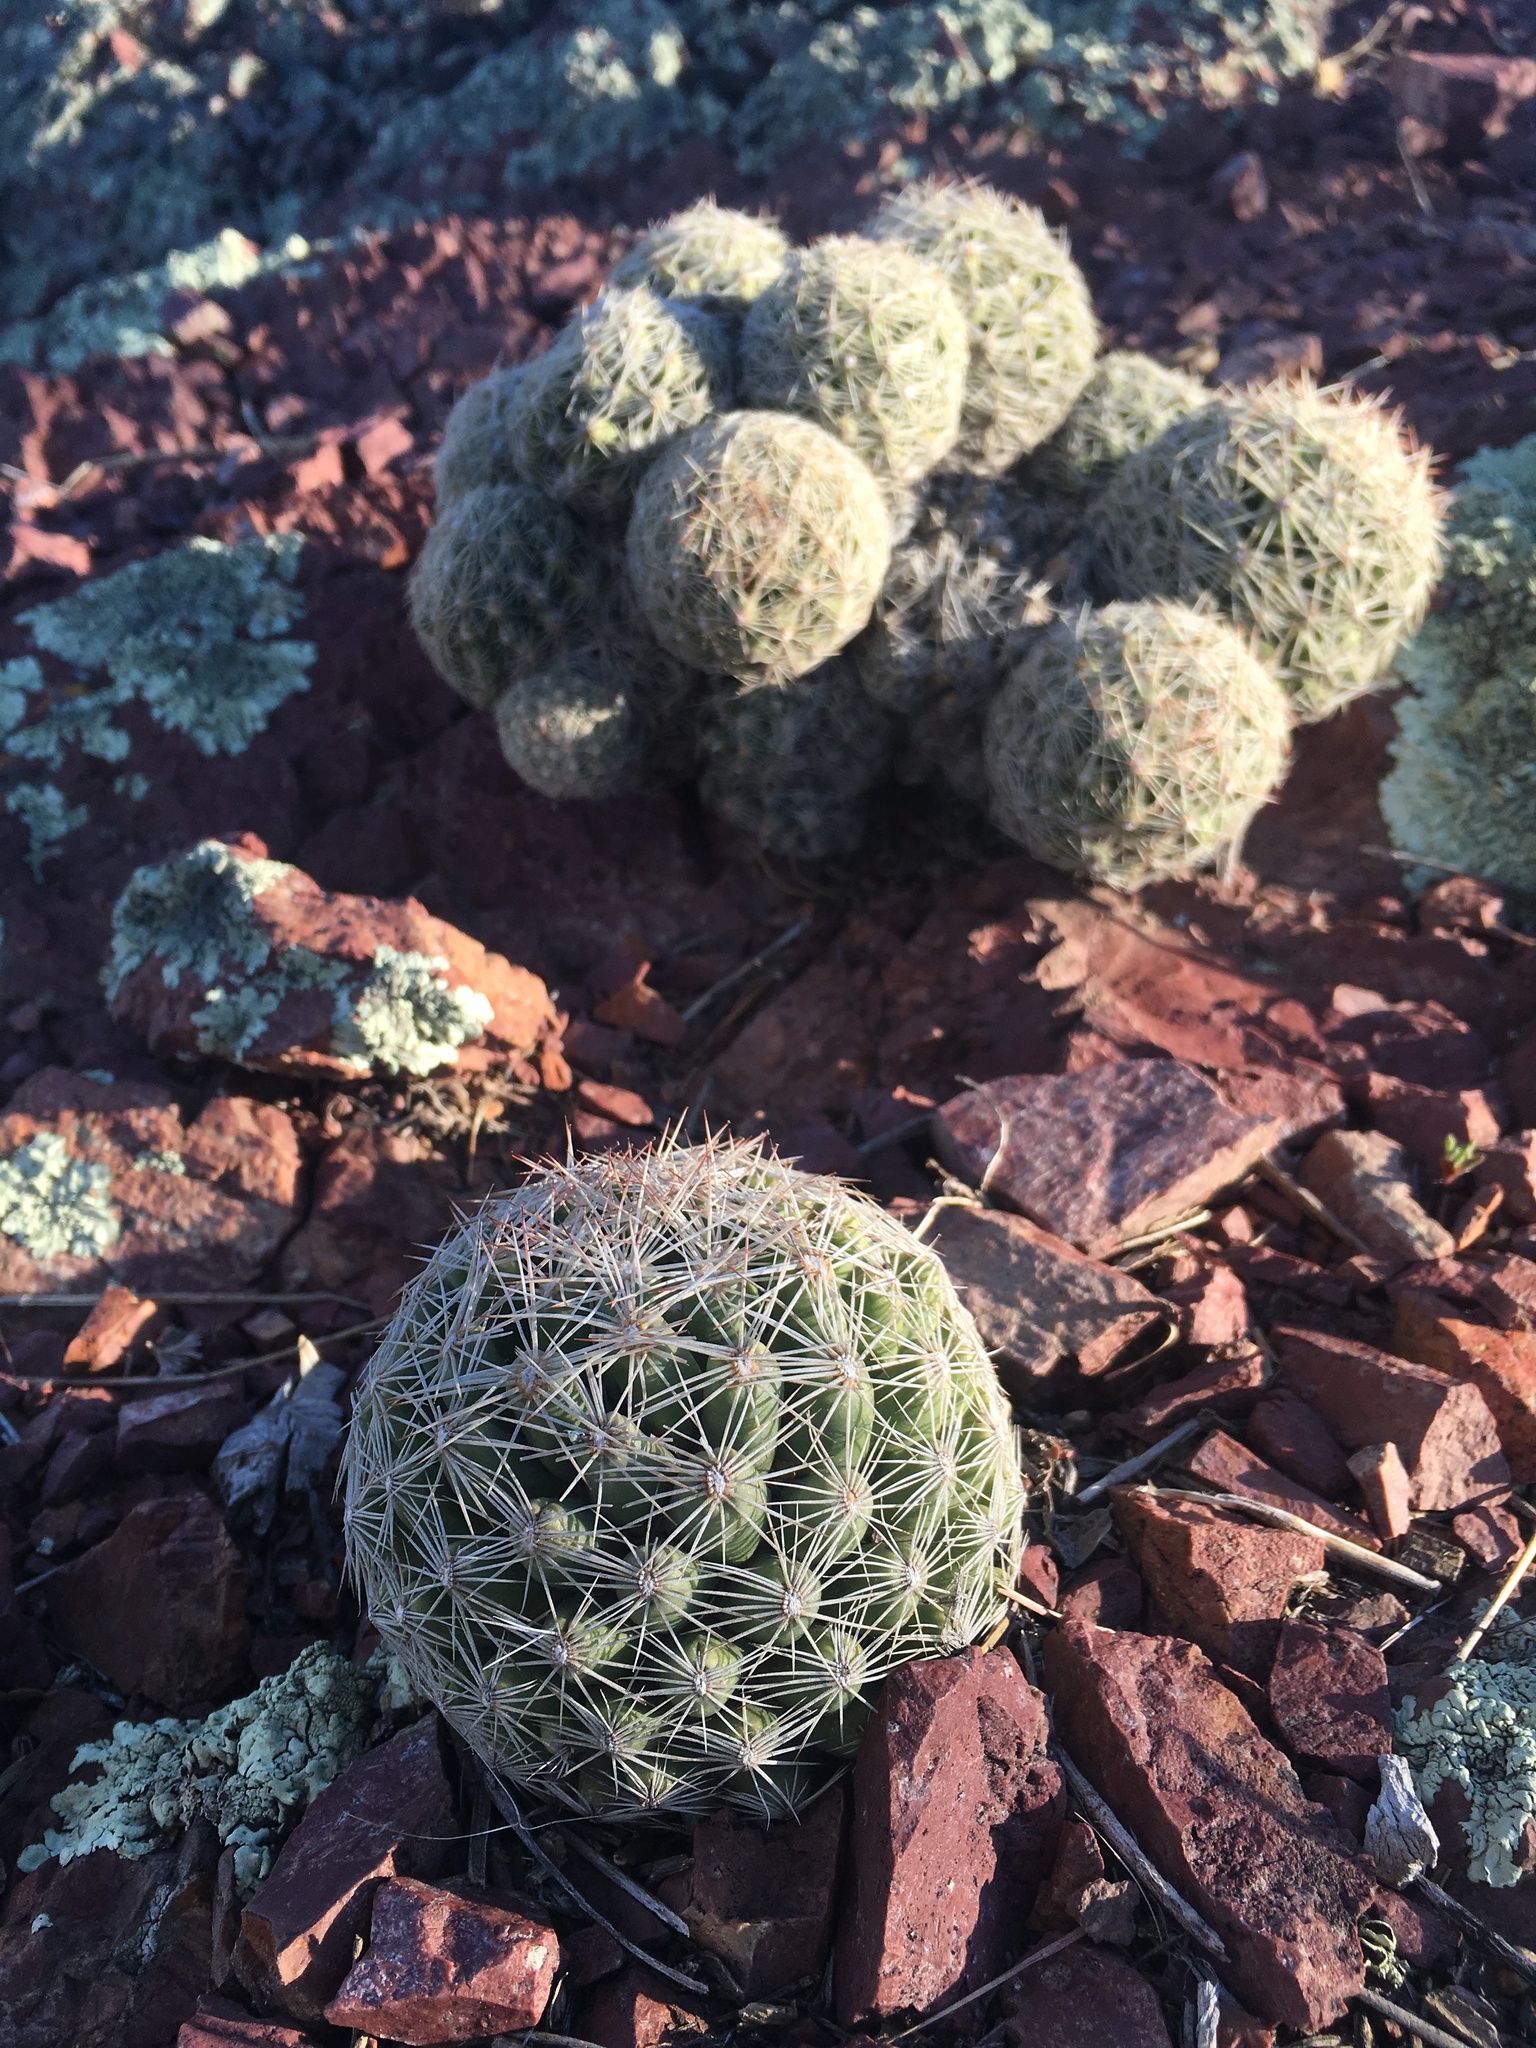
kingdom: Plantae
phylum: Tracheophyta
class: Magnoliopsida
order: Caryophyllales
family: Cactaceae
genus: Pelecyphora
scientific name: Pelecyphora vivipara
